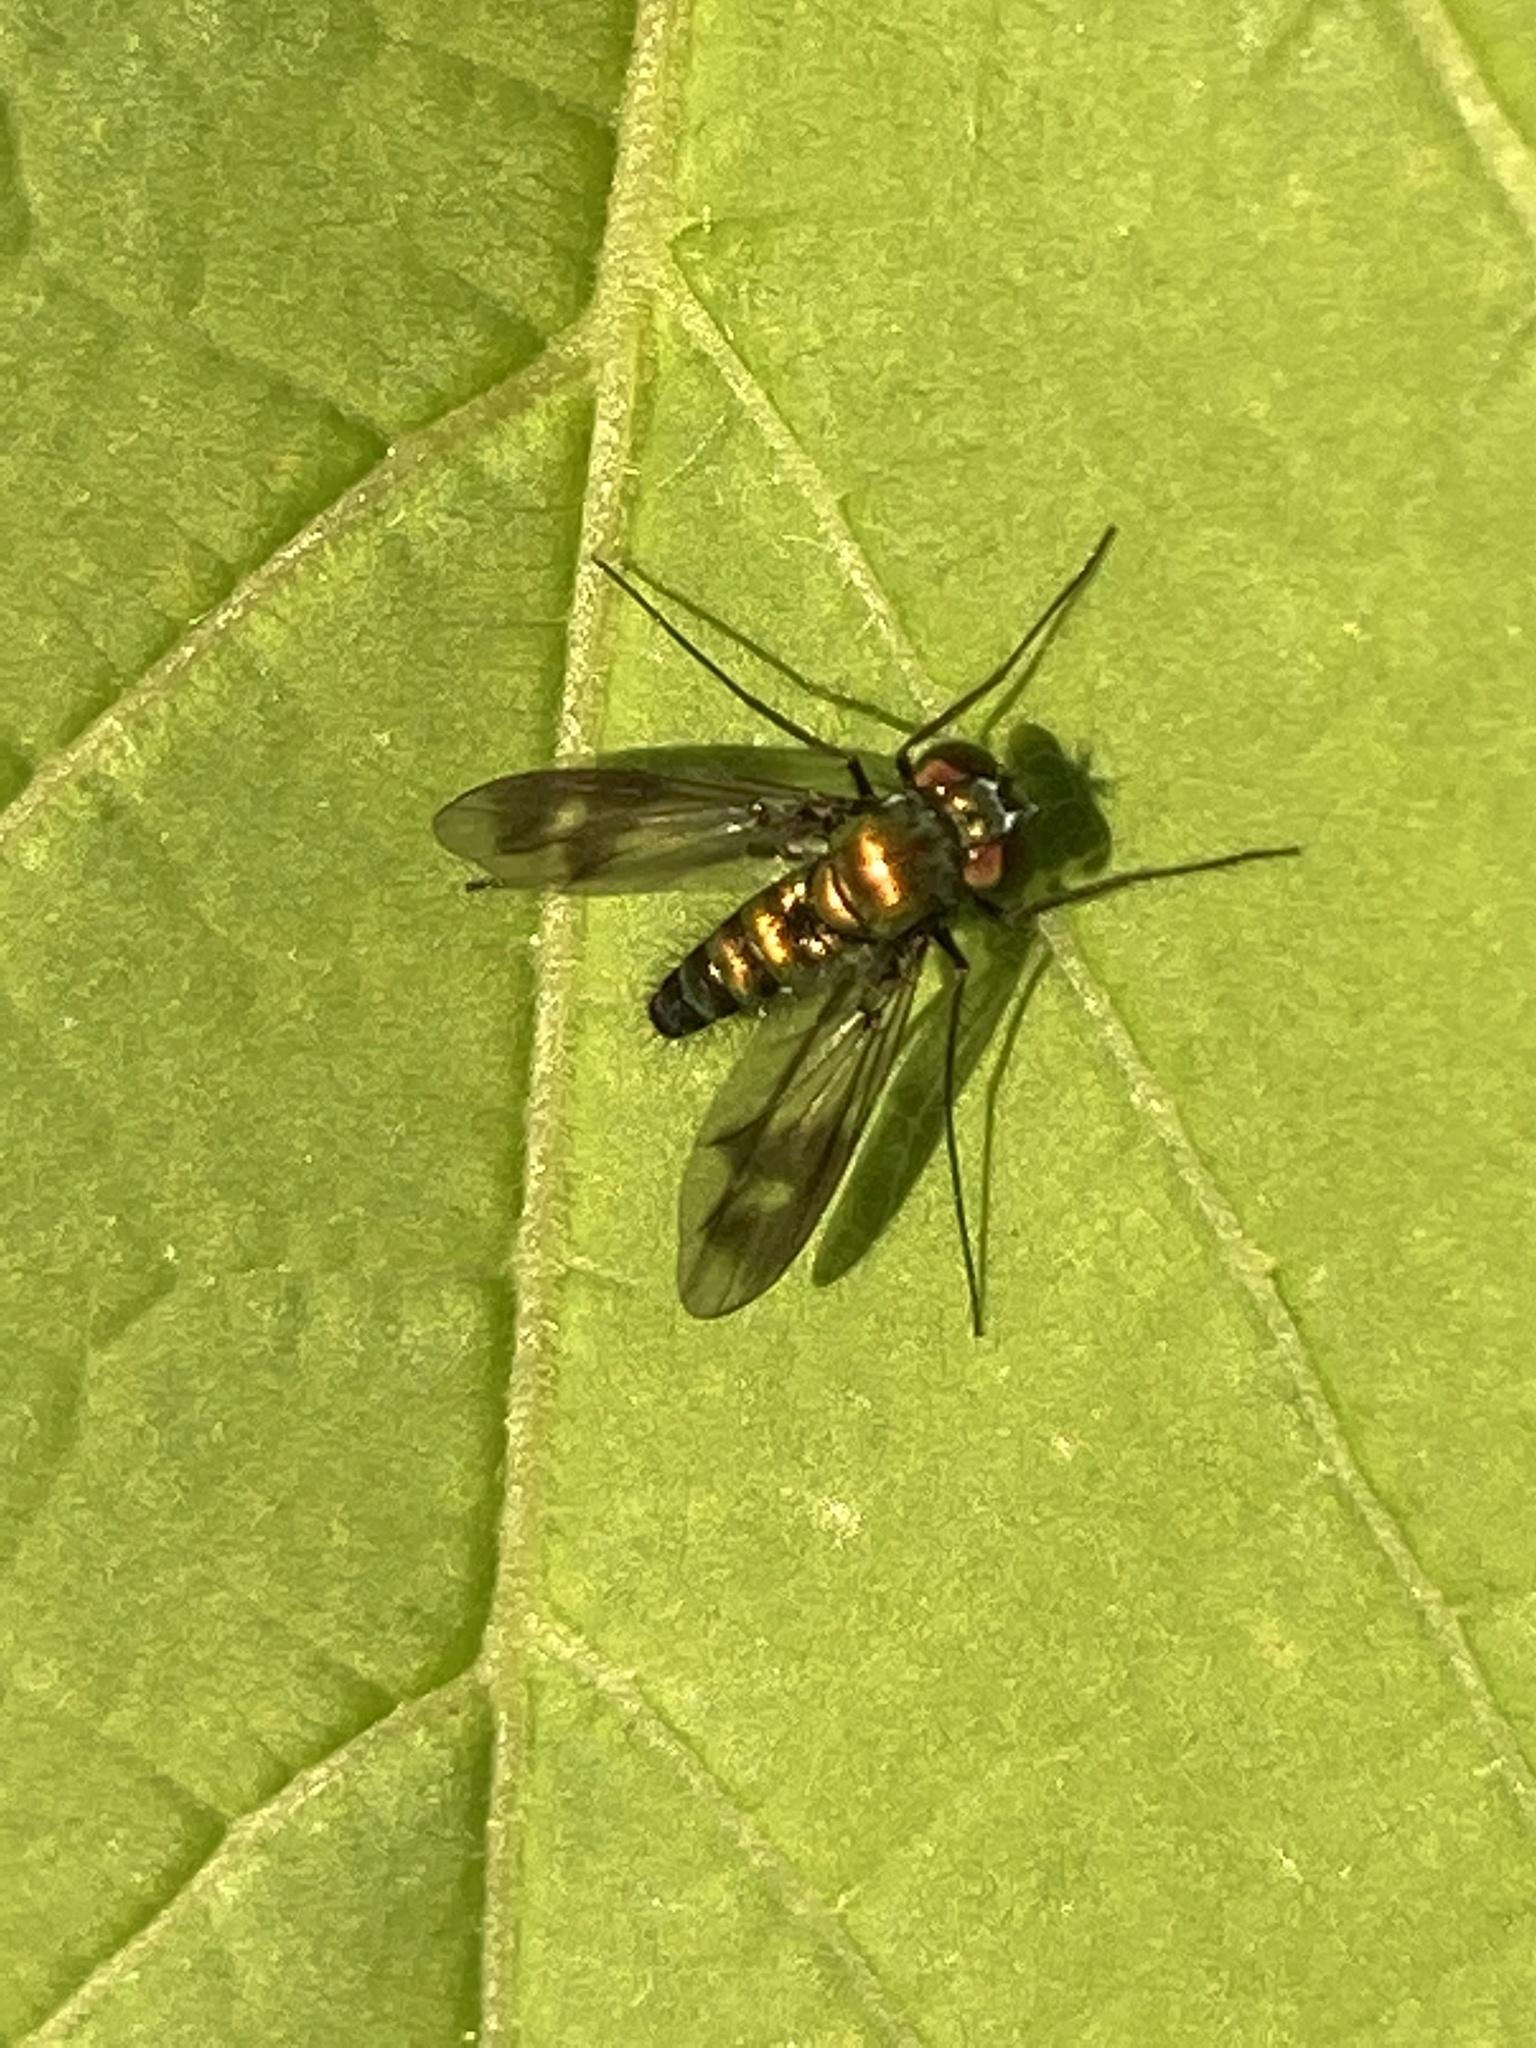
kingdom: Animalia
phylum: Arthropoda
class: Insecta
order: Diptera
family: Dolichopodidae
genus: Condylostylus
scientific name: Condylostylus patibulatus
